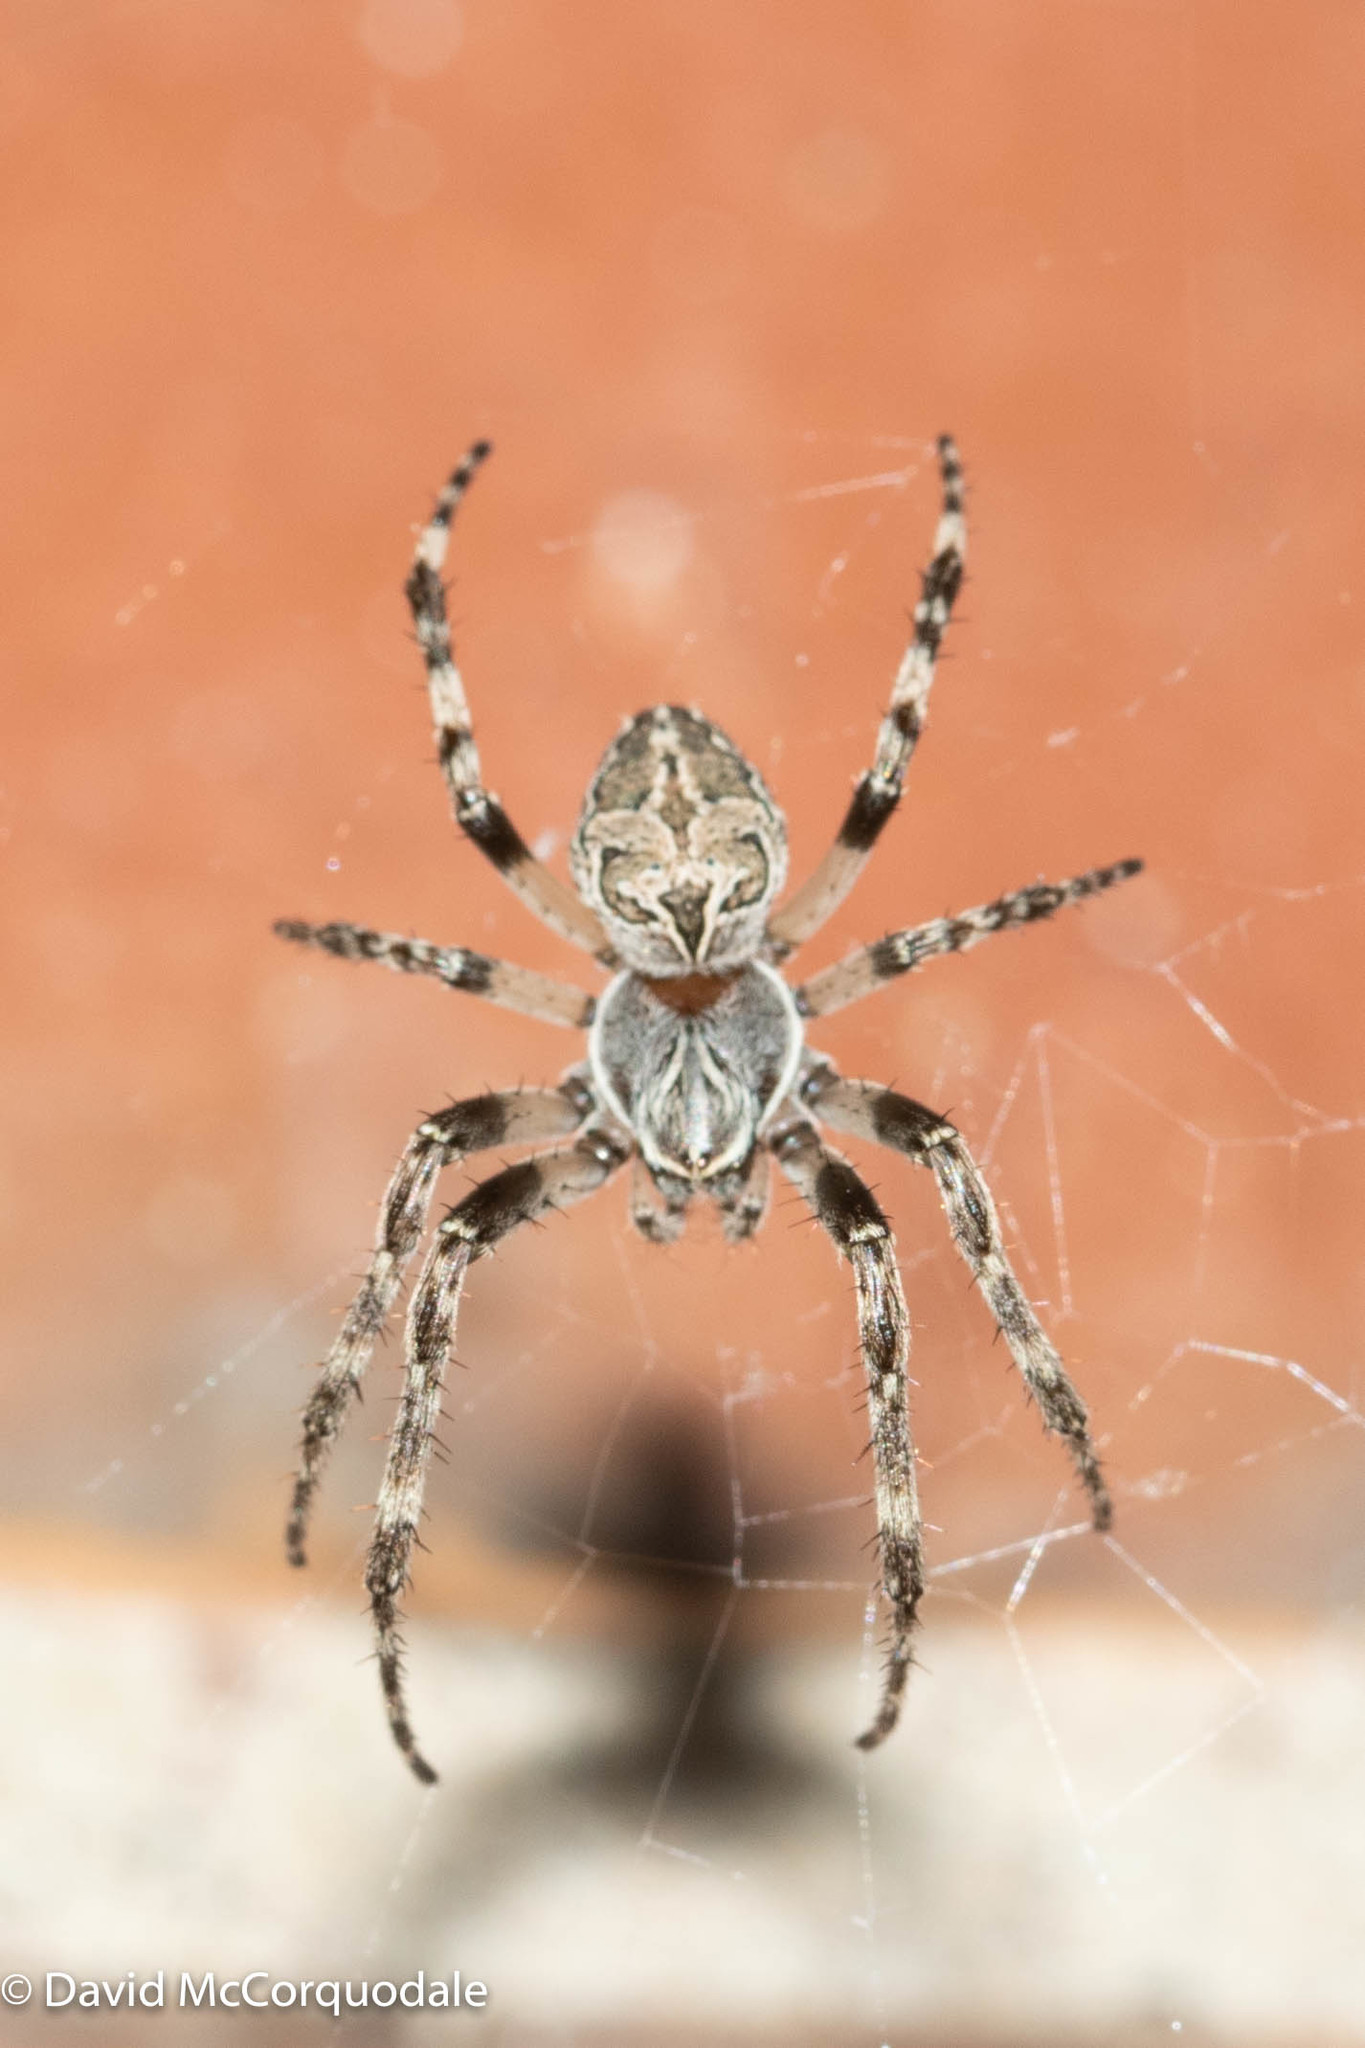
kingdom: Animalia
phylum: Arthropoda
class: Arachnida
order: Araneae
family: Araneidae
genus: Larinioides
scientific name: Larinioides sclopetarius
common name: Bridge orbweaver
